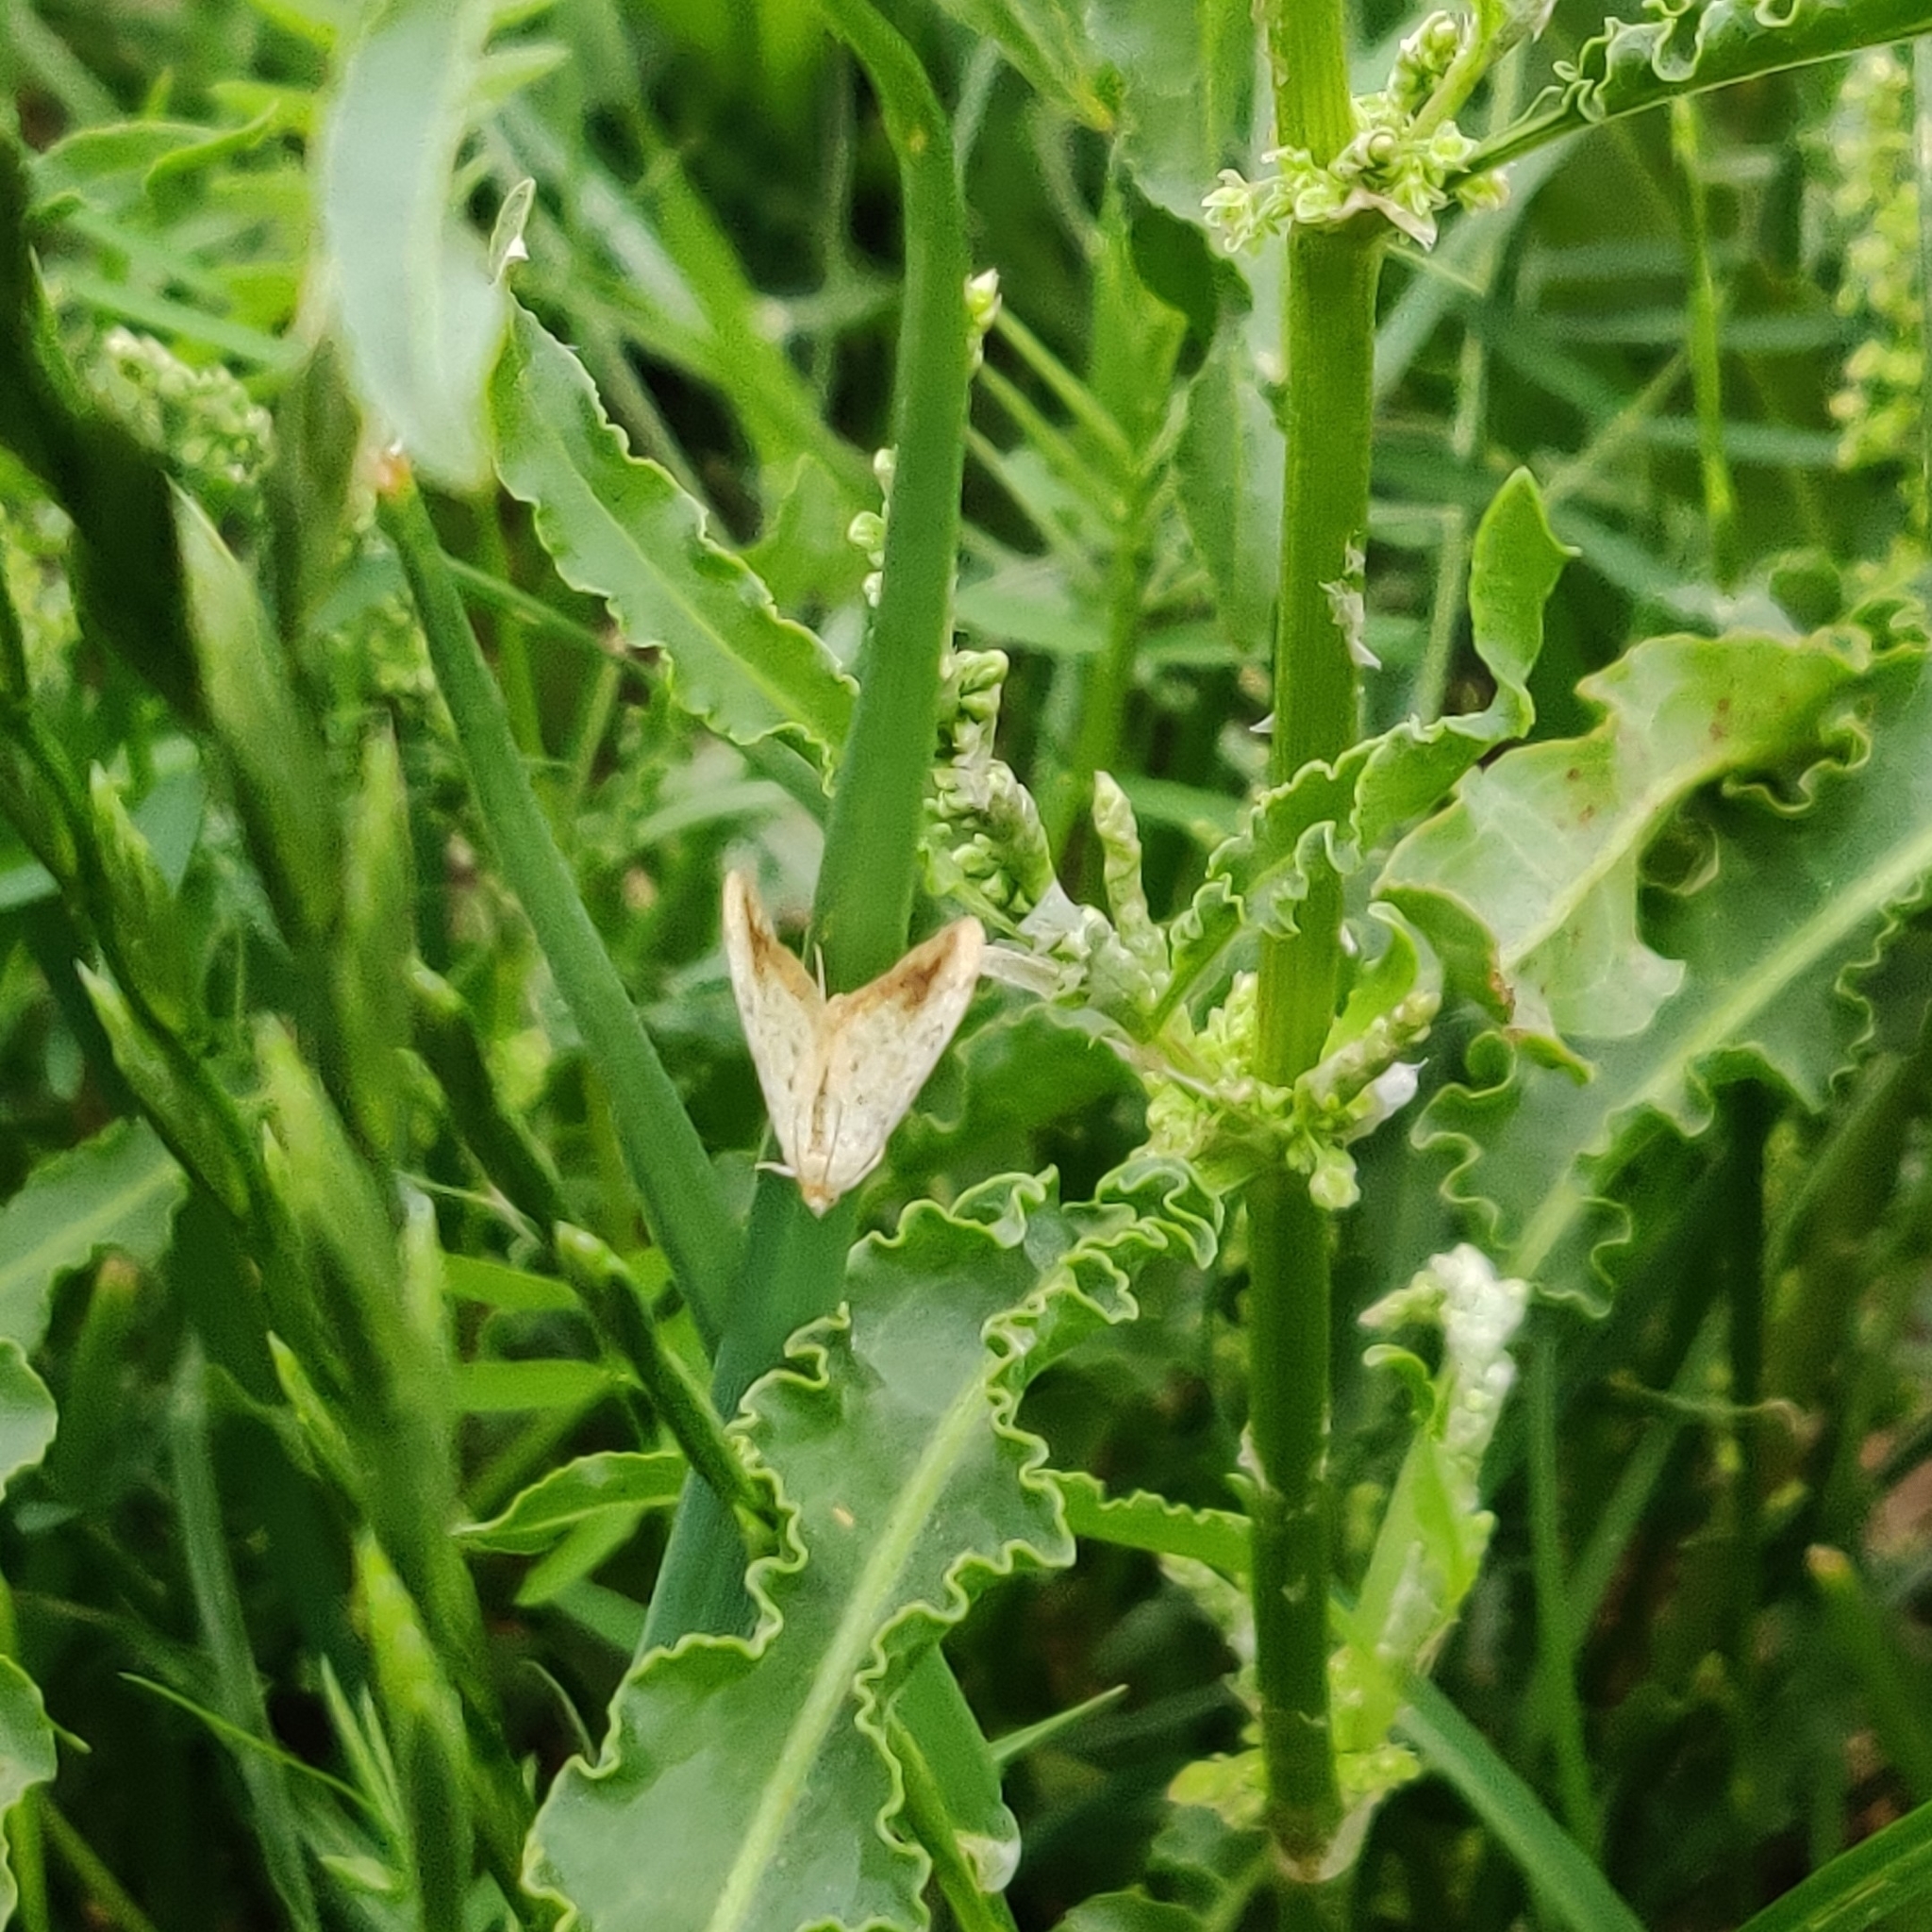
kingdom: Animalia
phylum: Arthropoda
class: Insecta
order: Lepidoptera
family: Crambidae
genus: Evergestis
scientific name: Evergestis extimalis
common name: Marbled yellow pearl
